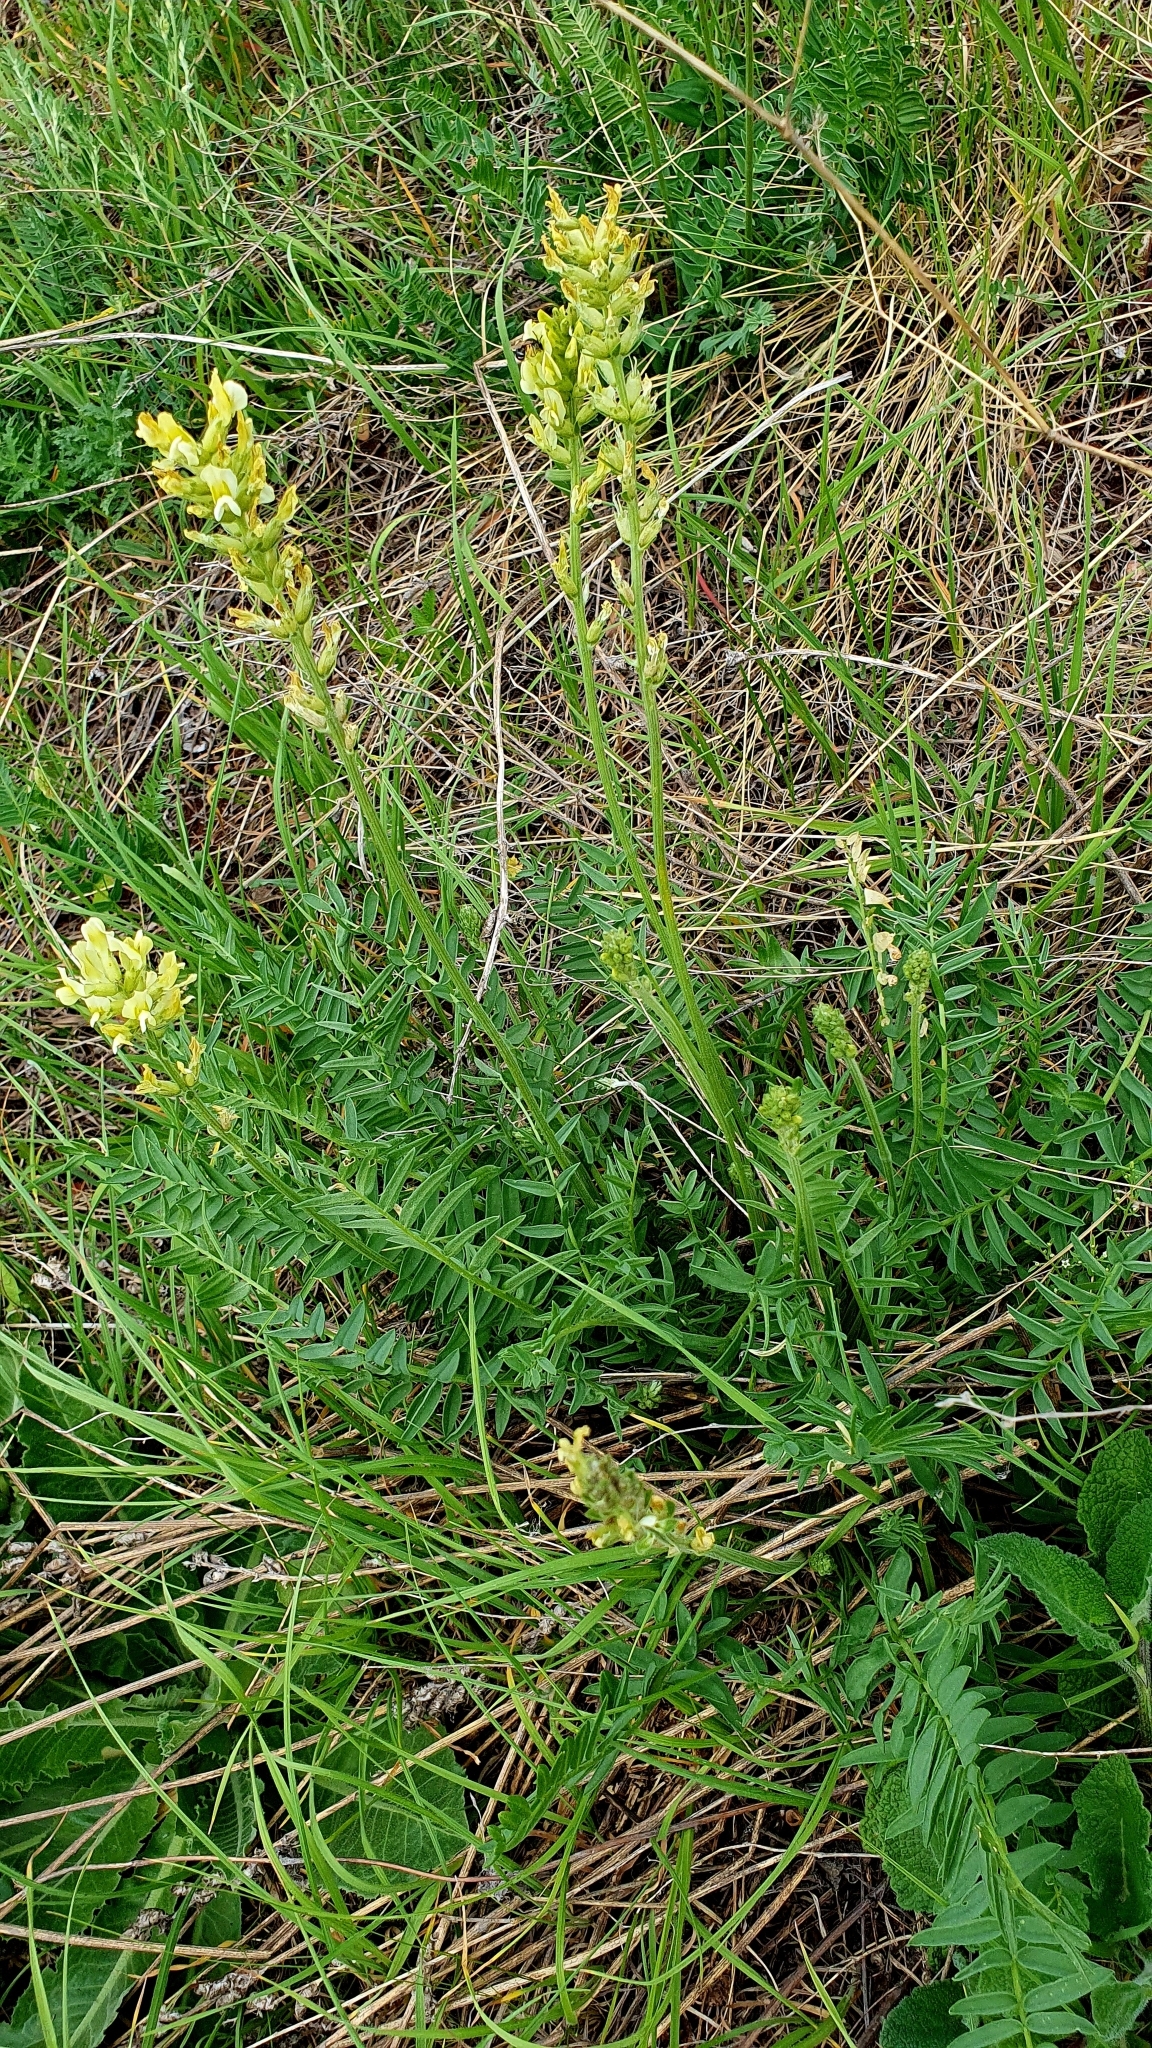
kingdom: Plantae
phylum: Tracheophyta
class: Magnoliopsida
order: Fabales
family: Fabaceae
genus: Oxytropis
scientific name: Oxytropis hippolyti
